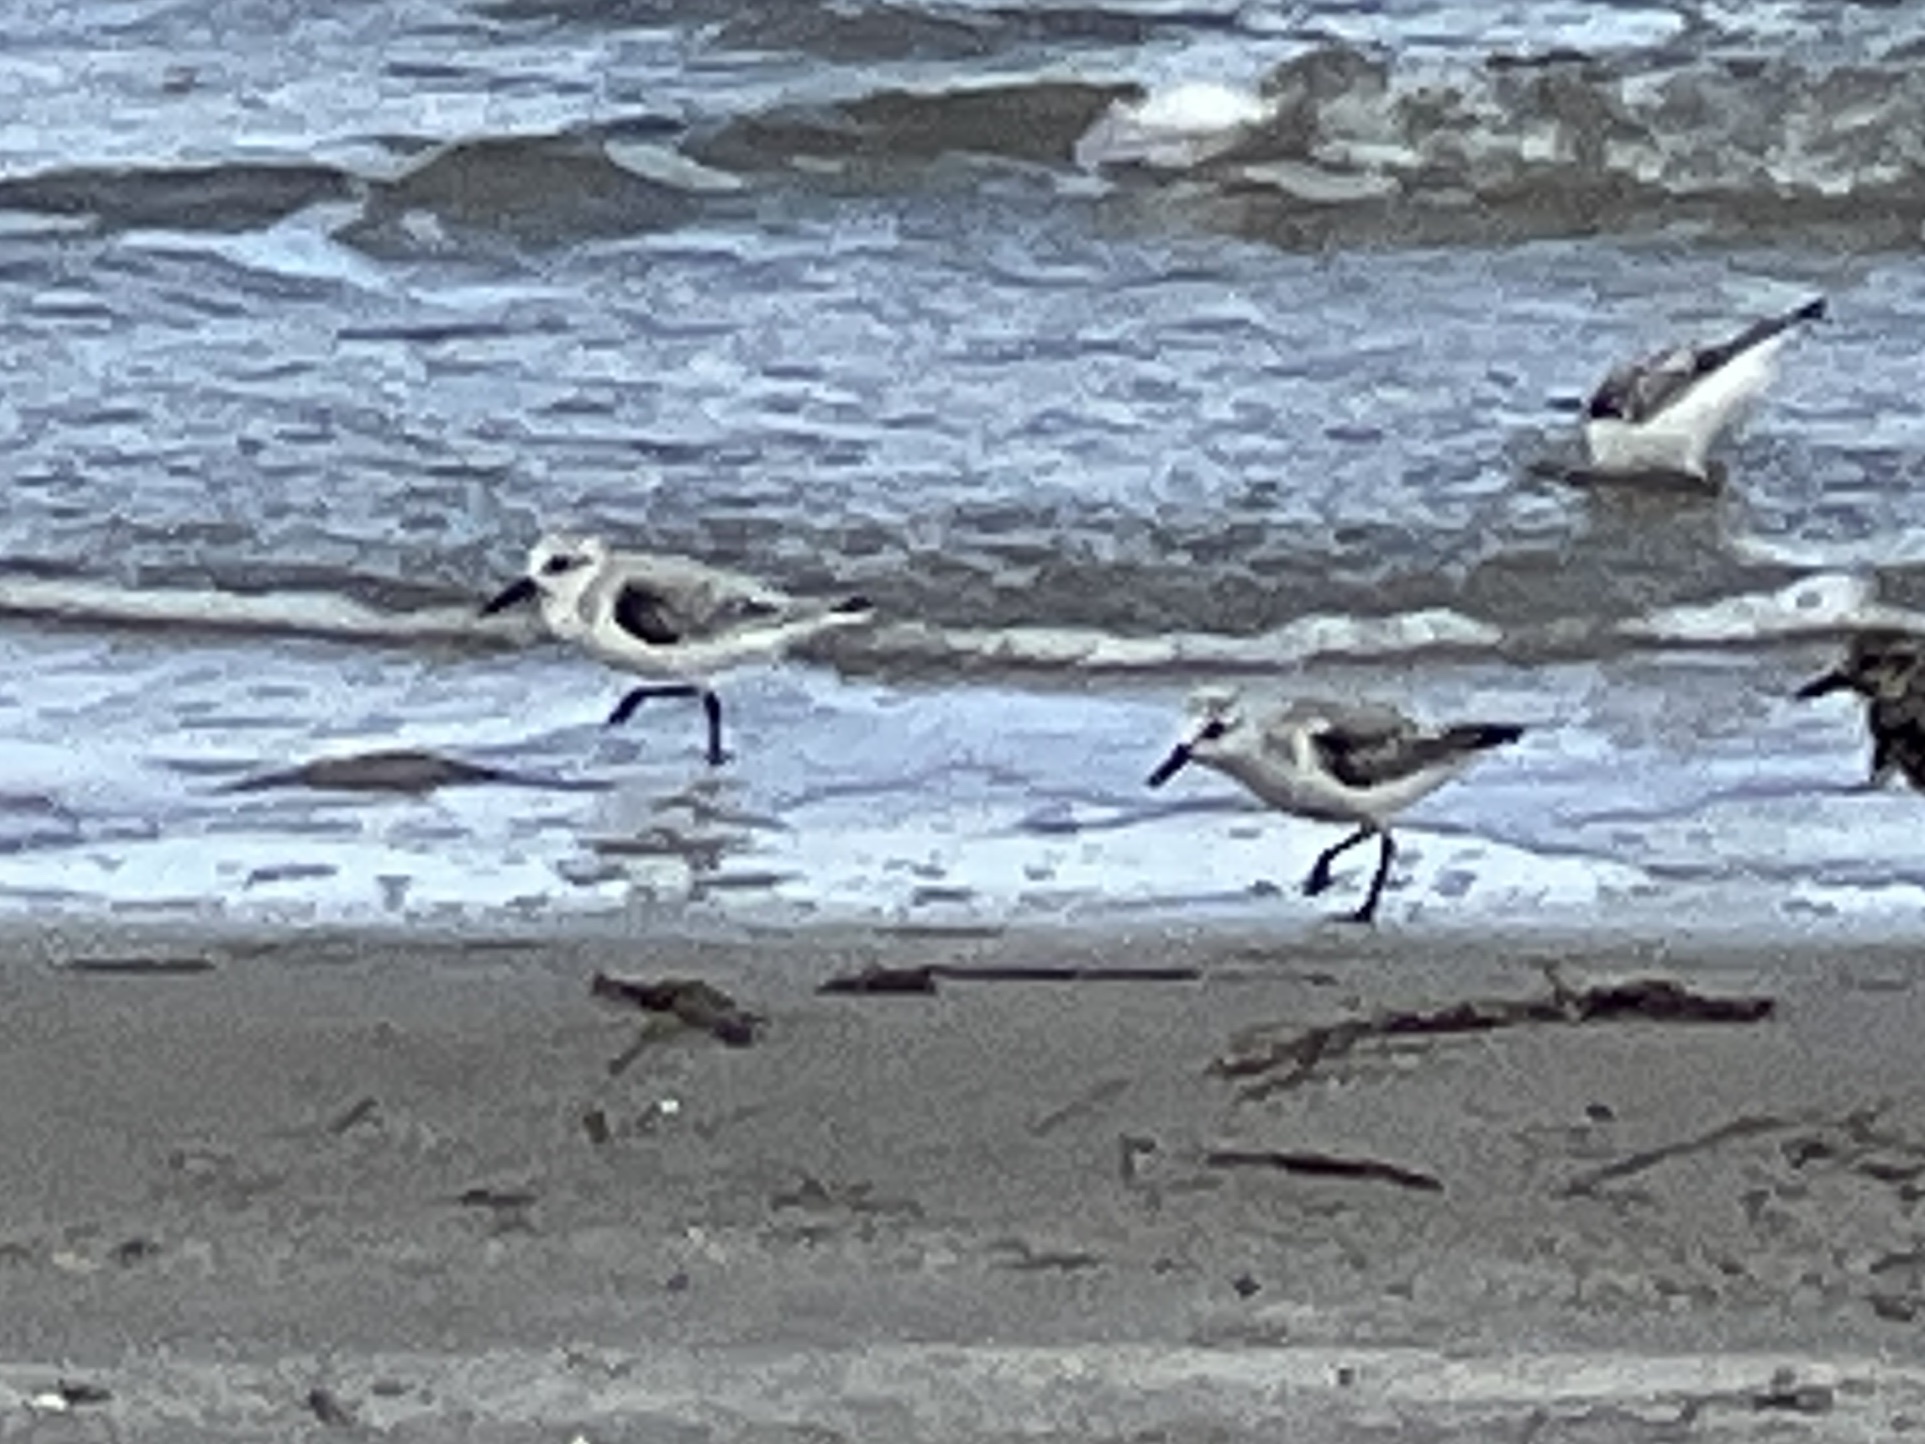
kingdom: Animalia
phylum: Chordata
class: Aves
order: Charadriiformes
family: Scolopacidae
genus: Calidris
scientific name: Calidris alba
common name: Sanderling
